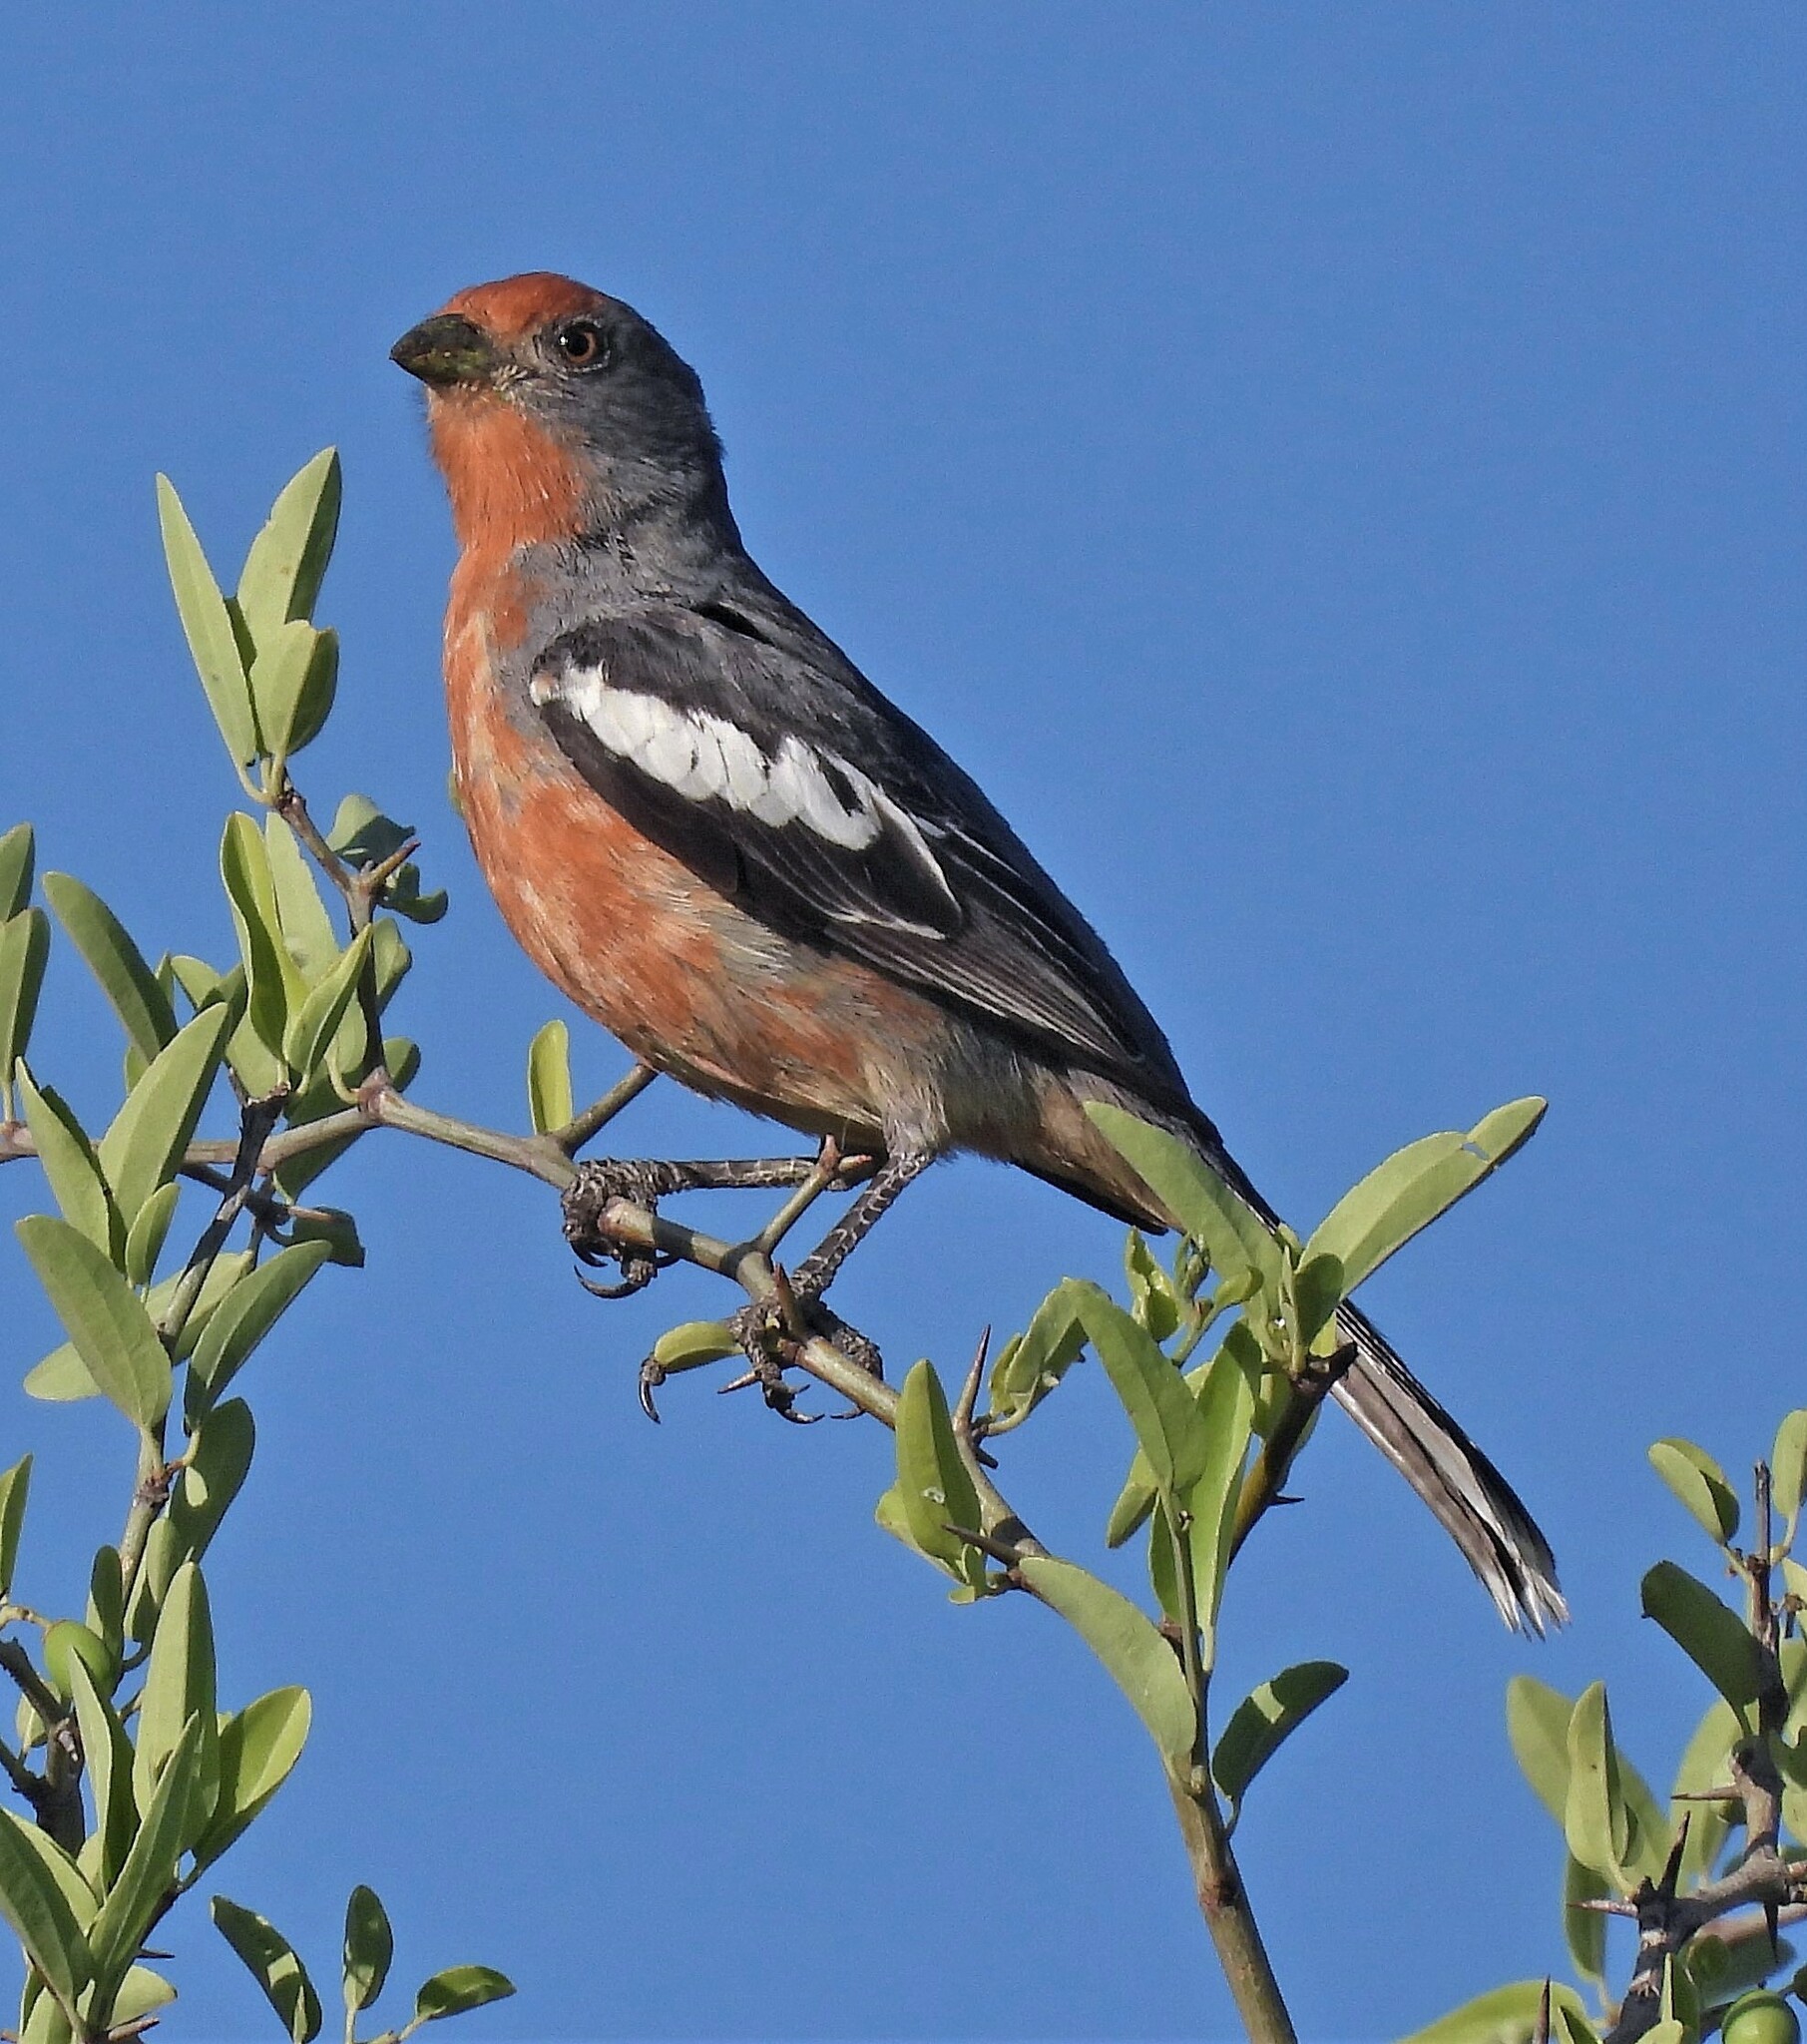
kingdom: Animalia
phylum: Chordata
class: Aves
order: Passeriformes
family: Cotingidae
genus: Phytotoma
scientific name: Phytotoma rutila
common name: White-tipped plantcutter
